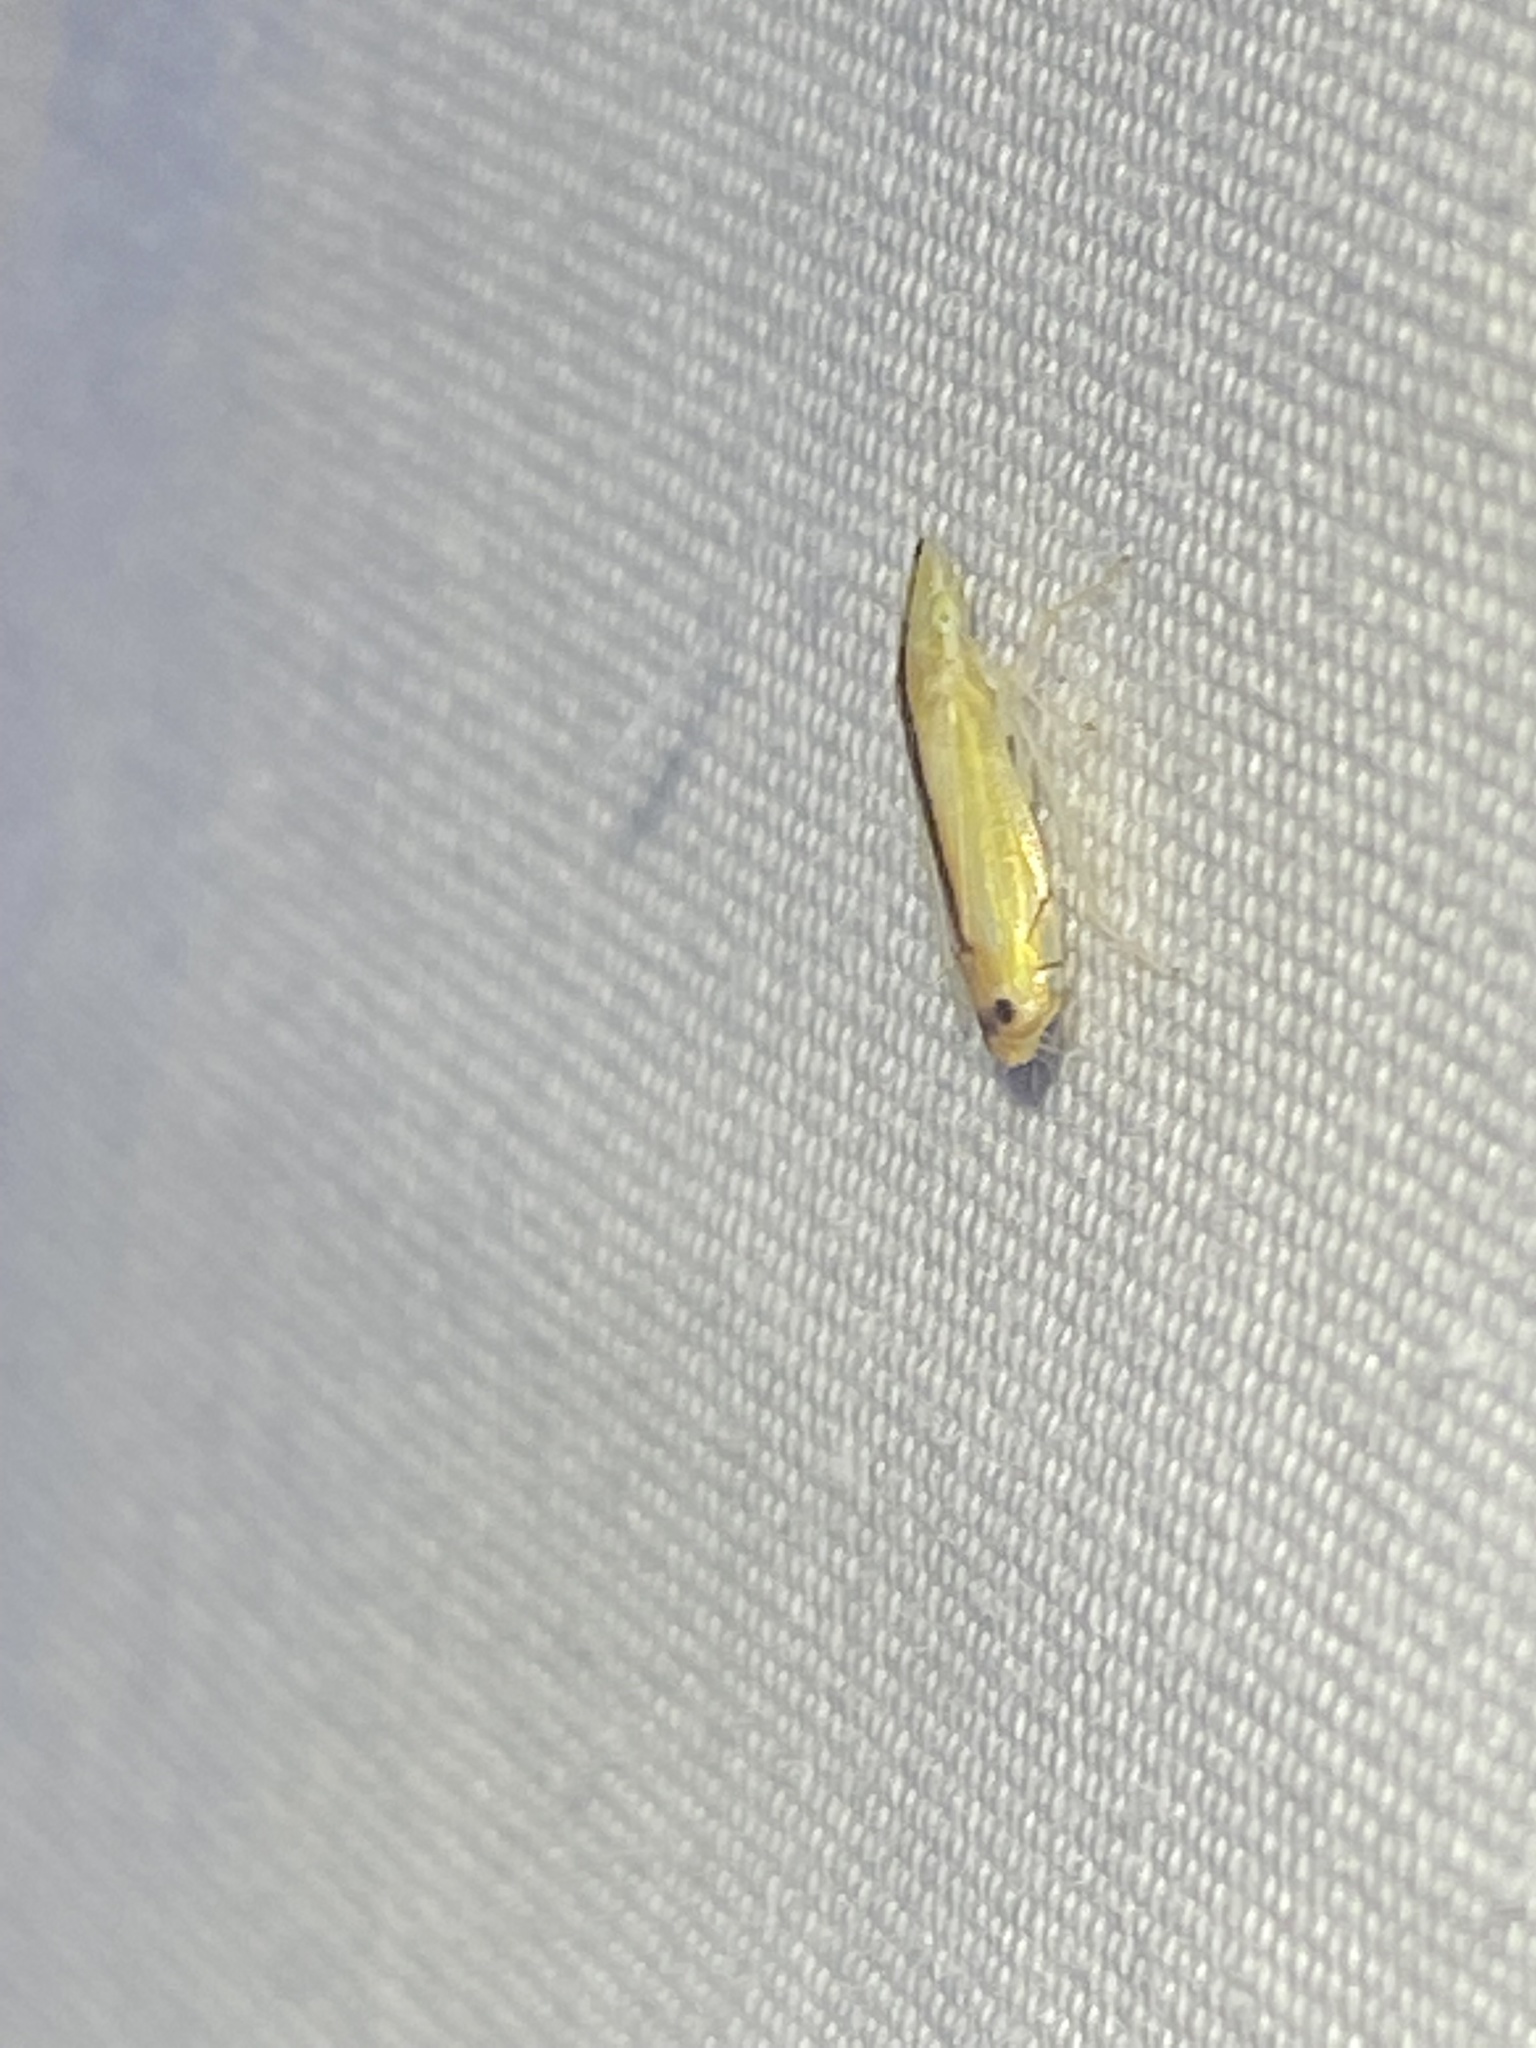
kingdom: Animalia
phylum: Arthropoda
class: Insecta
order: Hemiptera
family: Cicadellidae
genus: Sophonia
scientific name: Sophonia orientalis
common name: Two-spotted leafhopper
